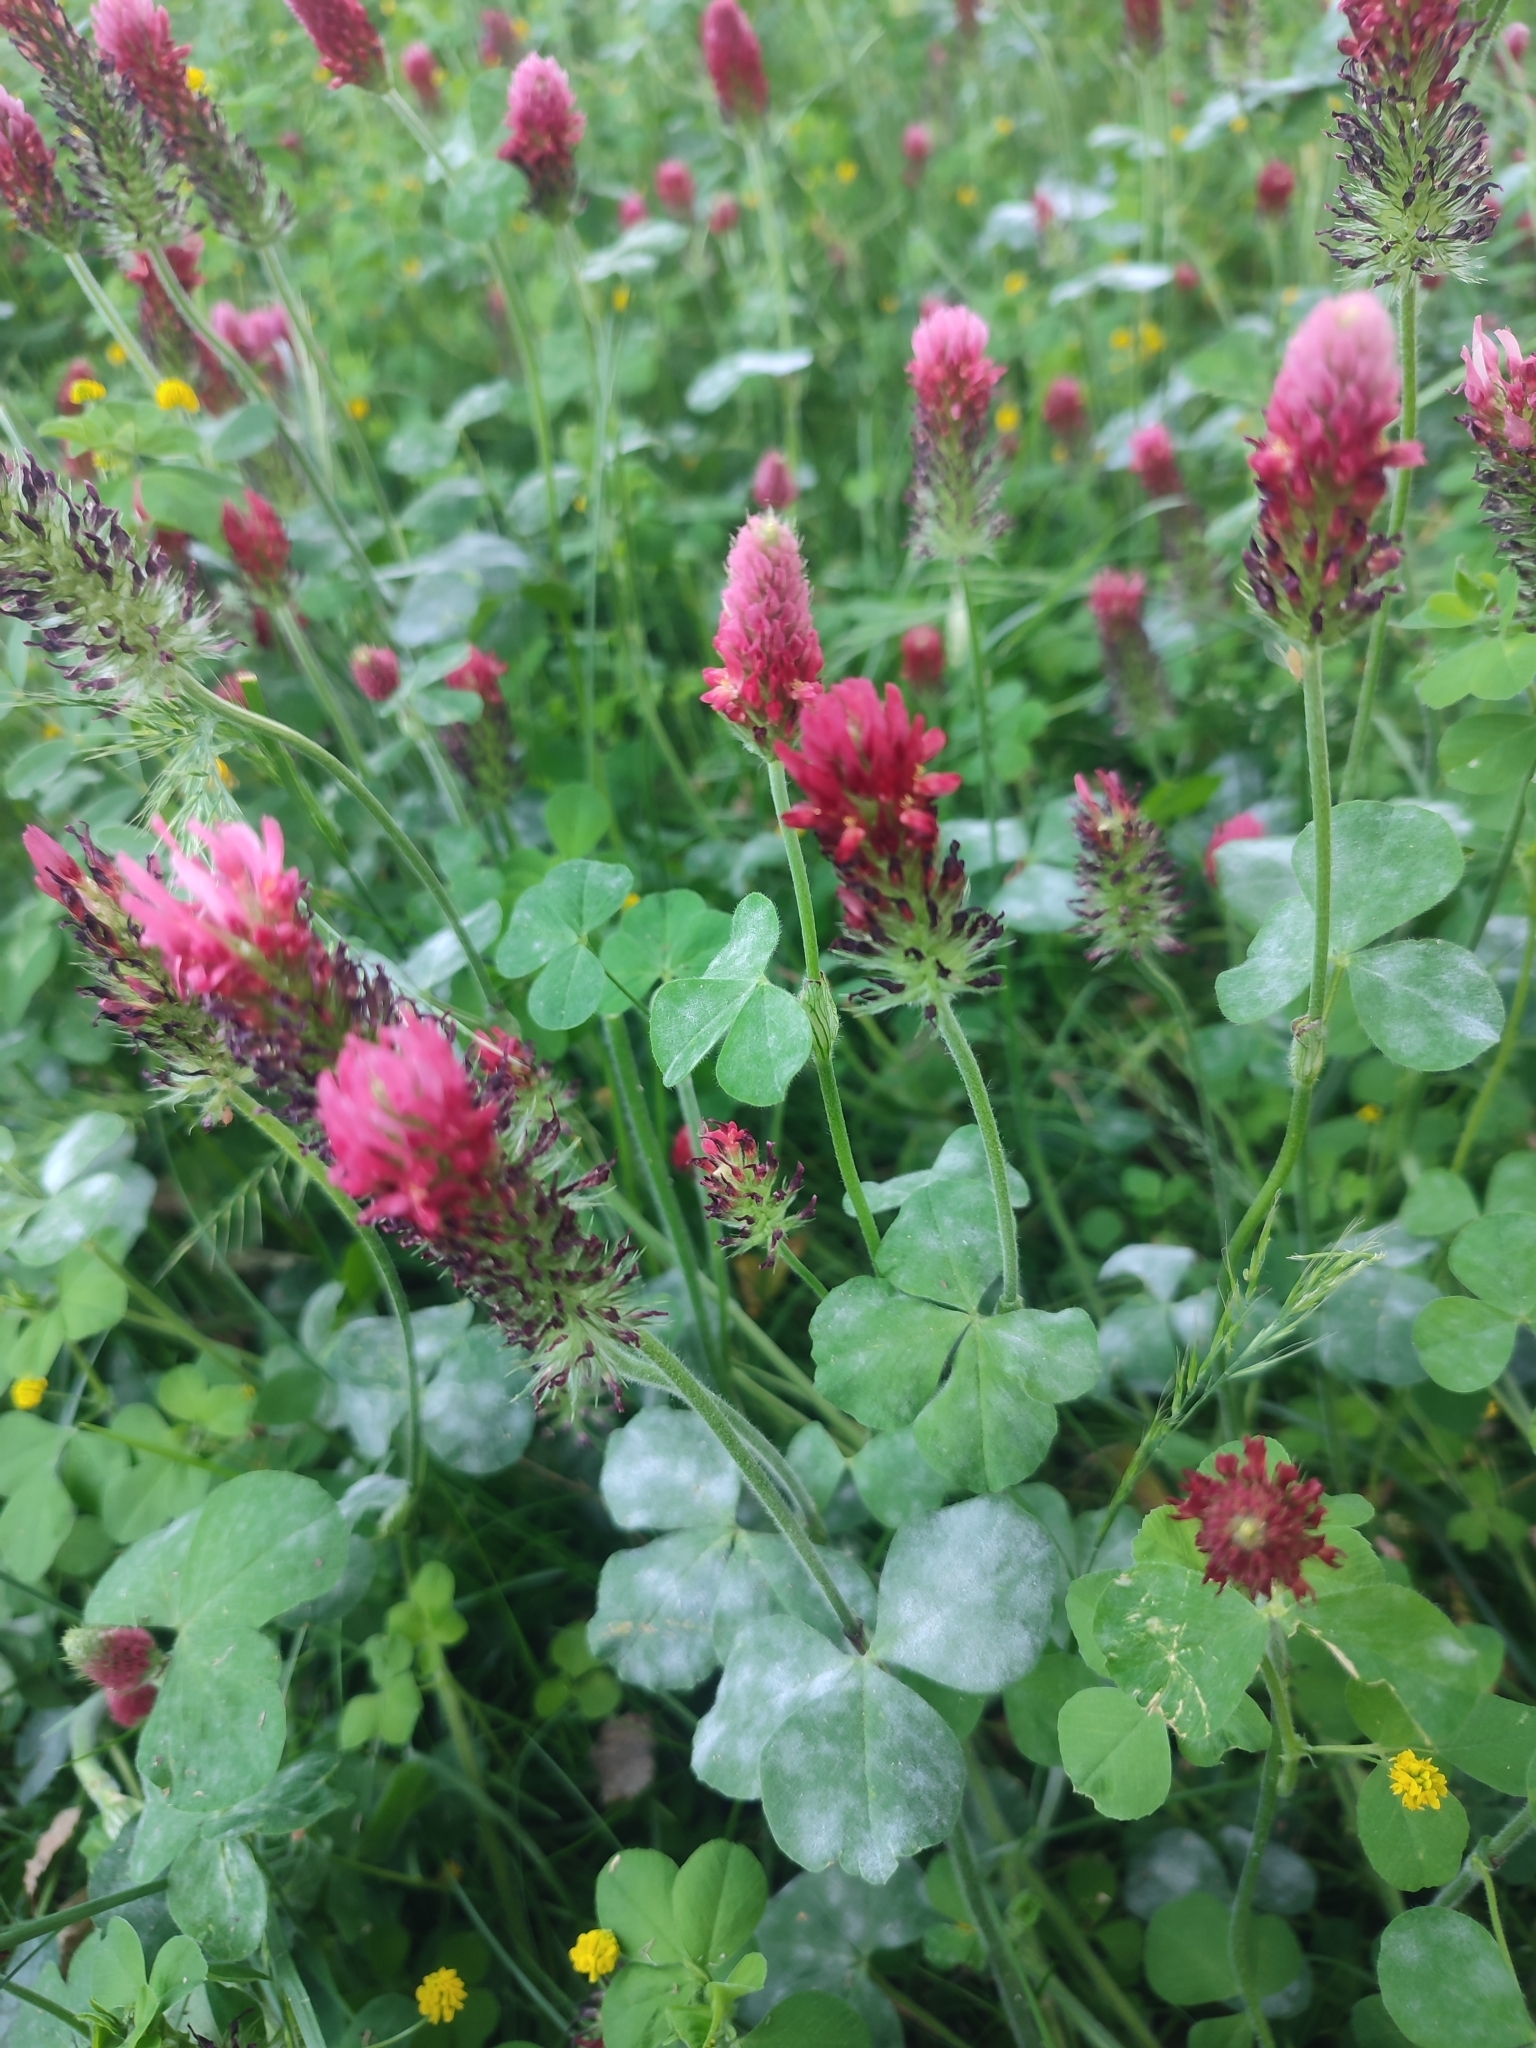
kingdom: Plantae
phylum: Tracheophyta
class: Magnoliopsida
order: Fabales
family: Fabaceae
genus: Trifolium
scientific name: Trifolium incarnatum
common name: Crimson clover
